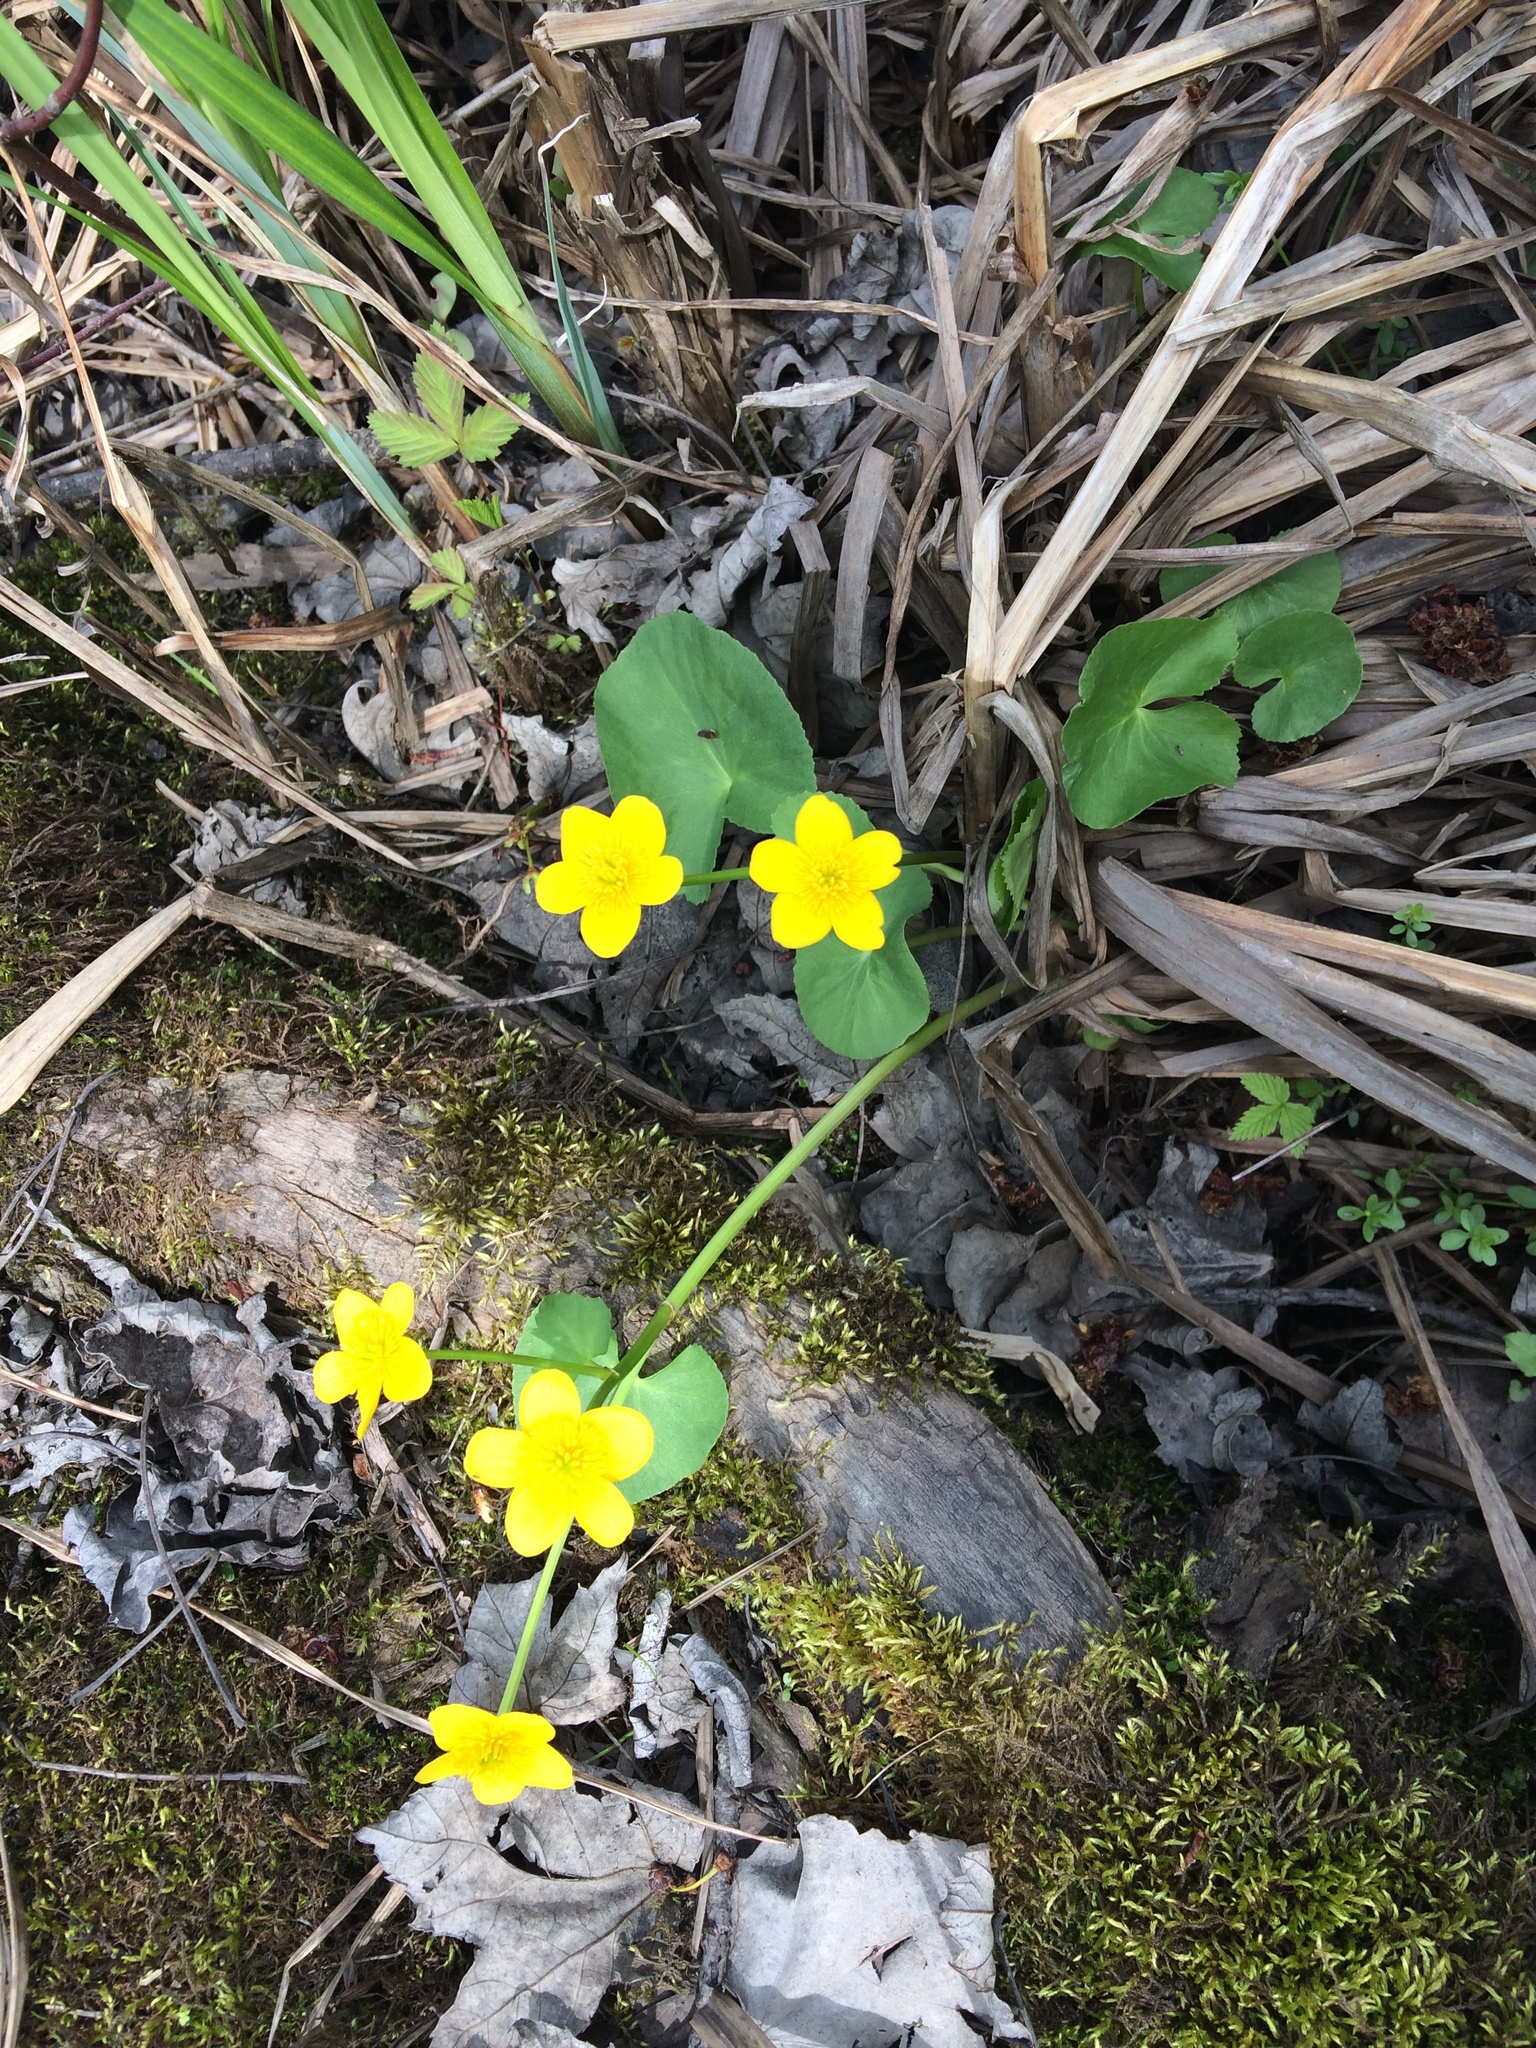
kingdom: Plantae
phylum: Tracheophyta
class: Magnoliopsida
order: Ranunculales
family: Ranunculaceae
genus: Caltha
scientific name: Caltha palustris
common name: Marsh marigold
